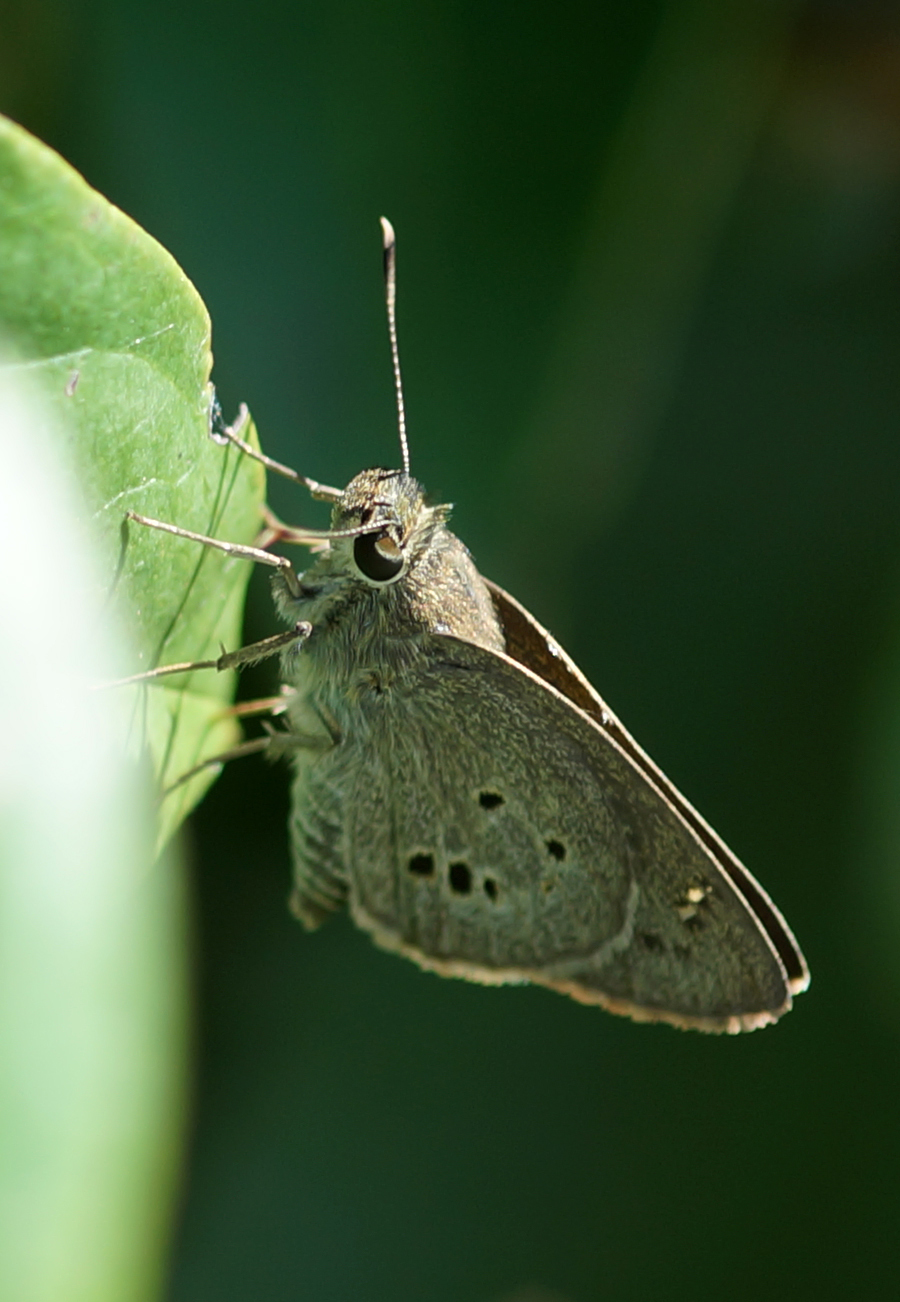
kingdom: Animalia
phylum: Arthropoda
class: Insecta
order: Lepidoptera
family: Hesperiidae
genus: Suastus
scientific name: Suastus gremius
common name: Indian palm bob
